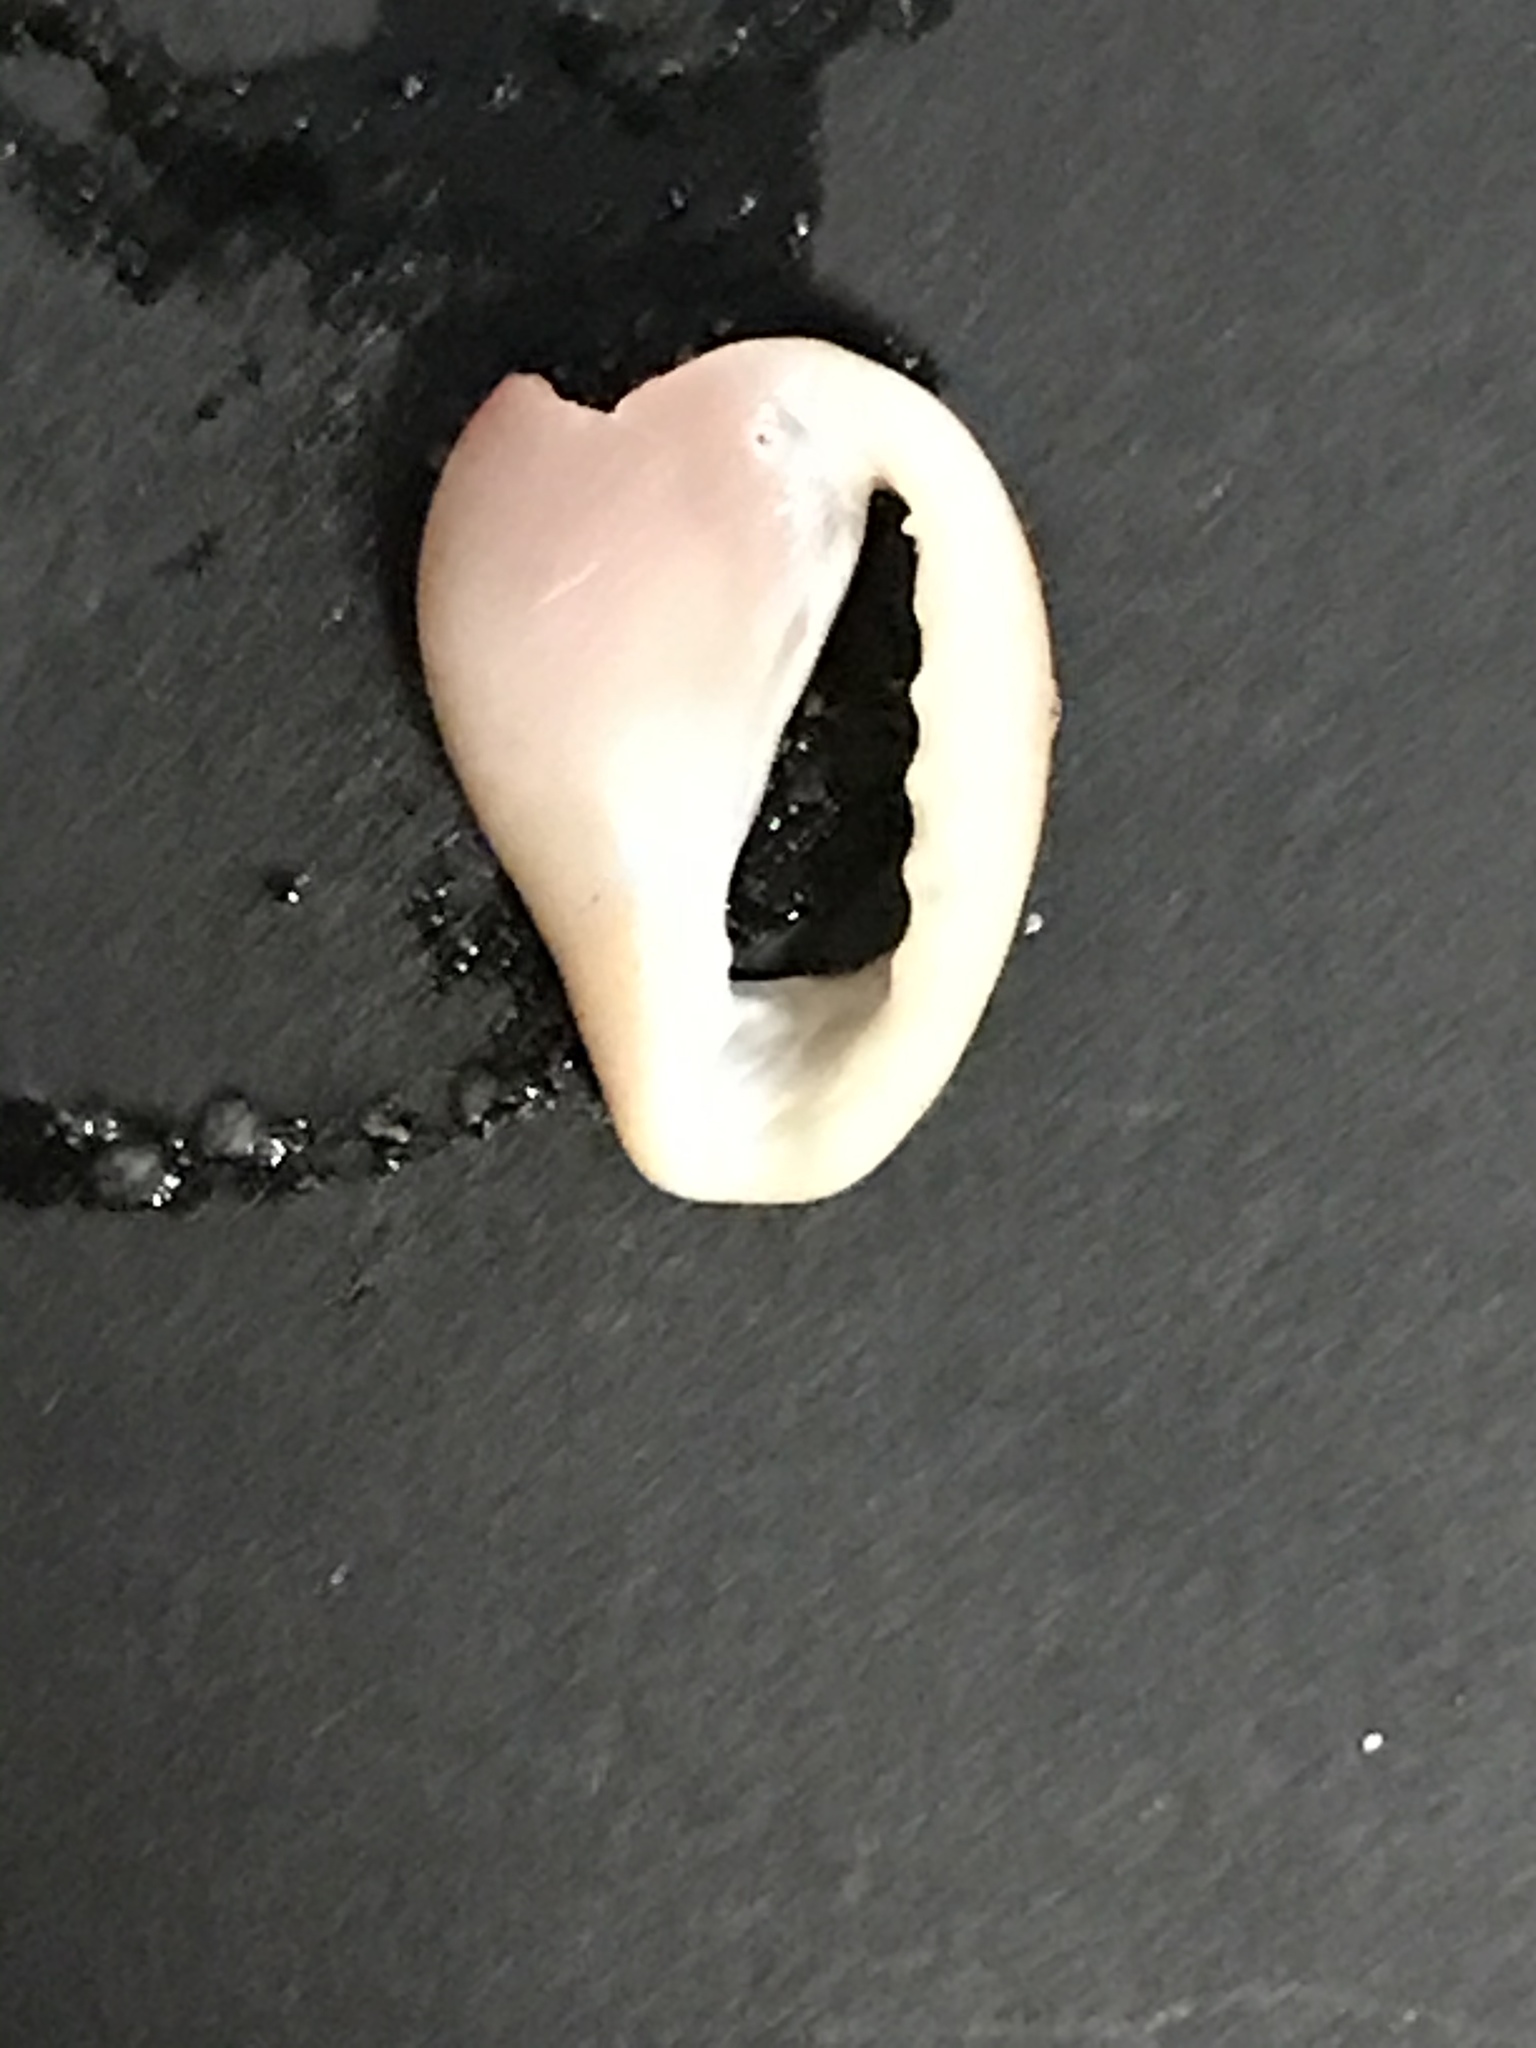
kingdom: Animalia
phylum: Mollusca
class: Gastropoda
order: Littorinimorpha
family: Eratoidae
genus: Hespererato
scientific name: Hespererato vitellina
